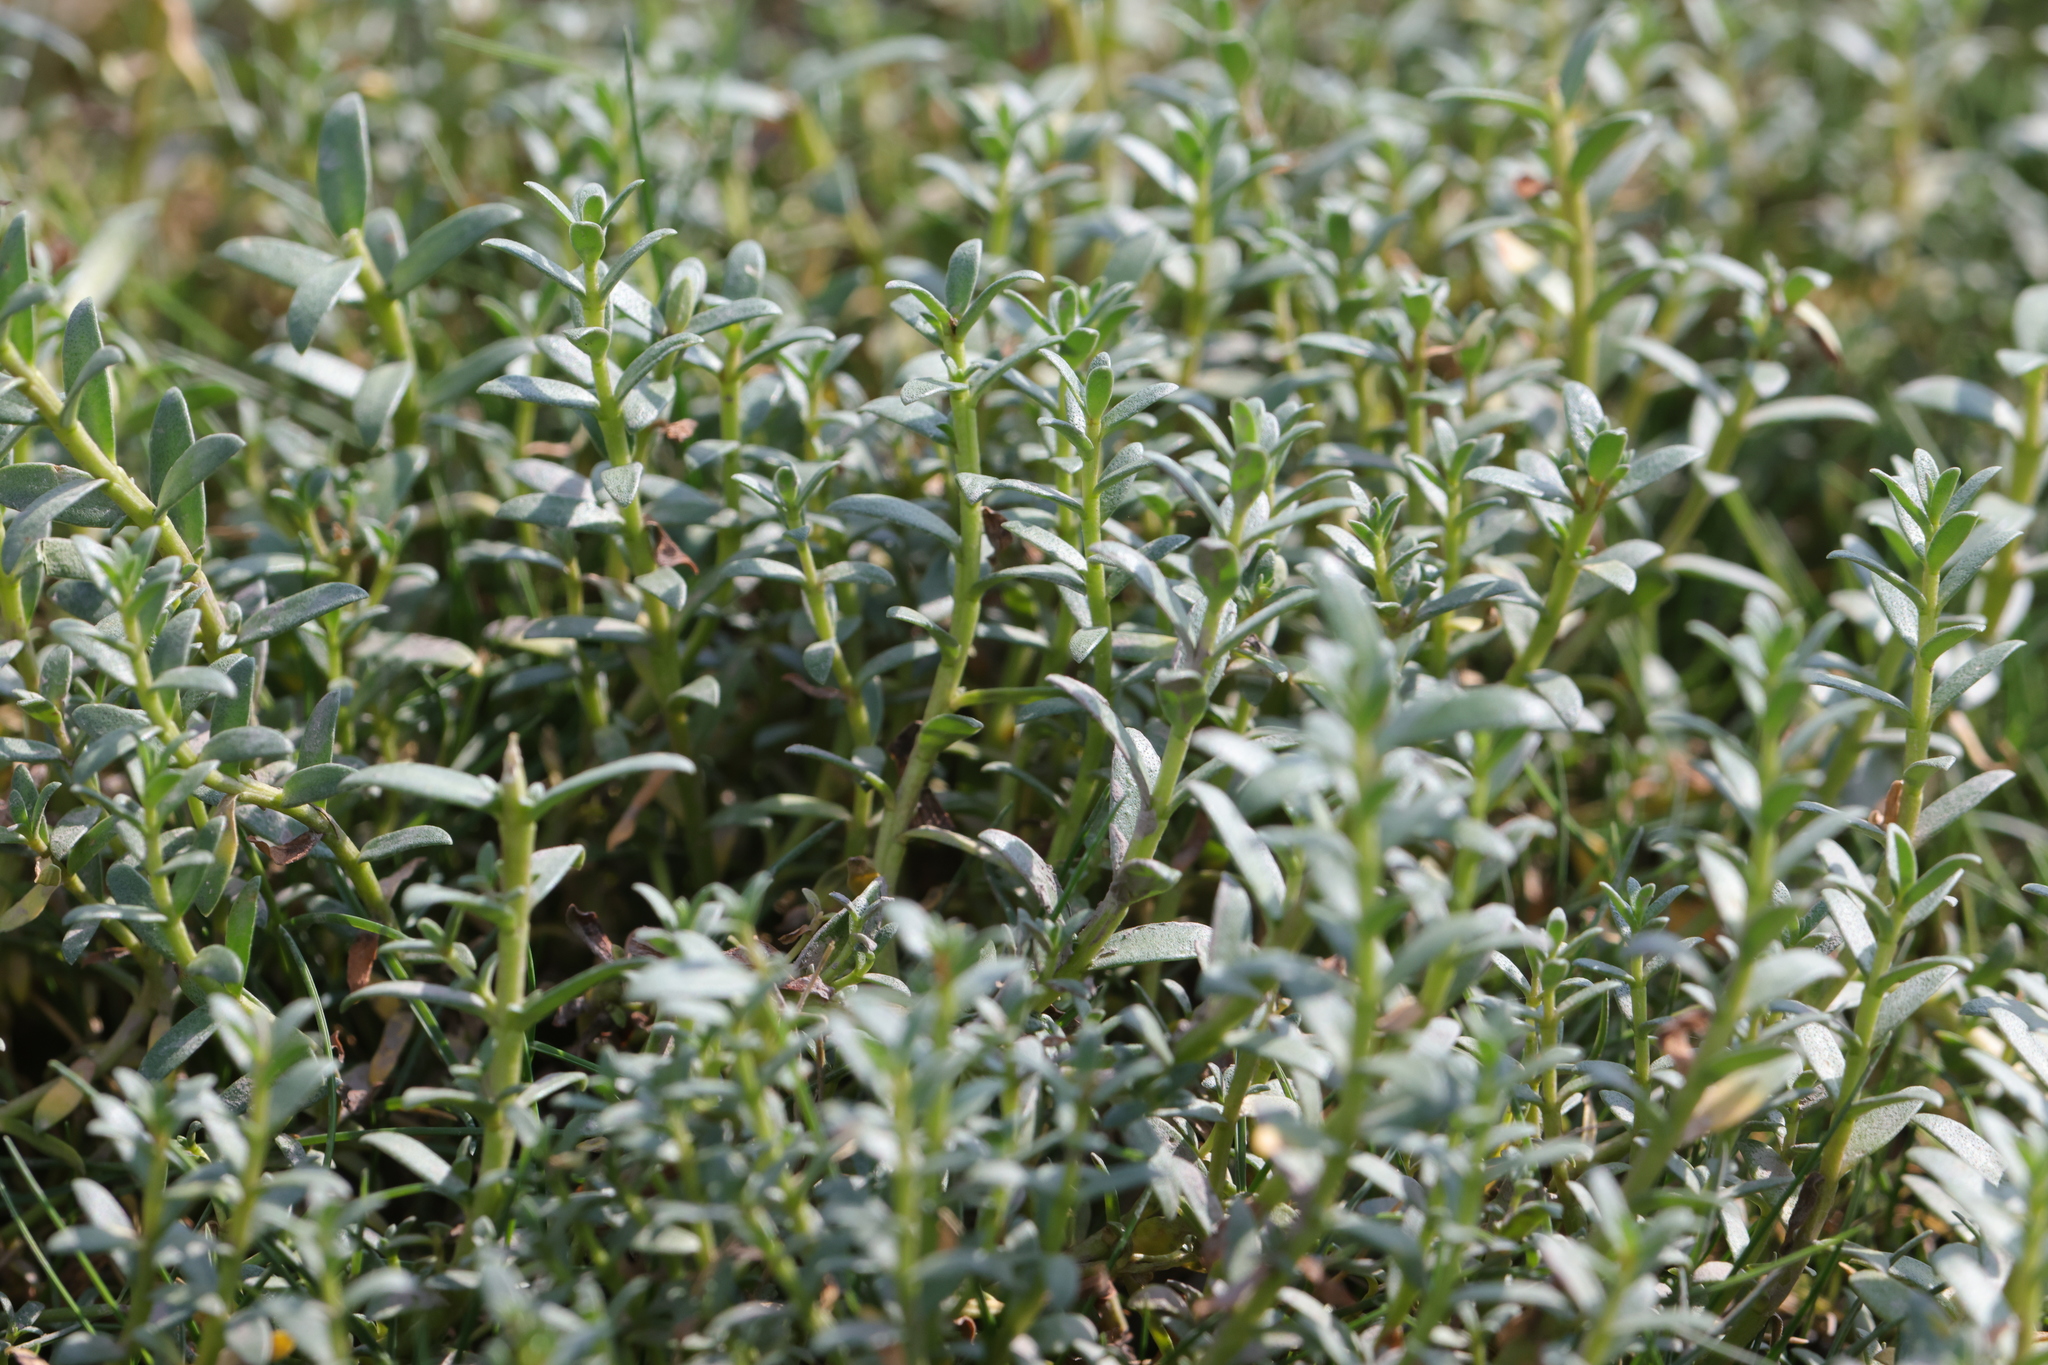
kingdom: Plantae
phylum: Tracheophyta
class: Magnoliopsida
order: Ericales
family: Primulaceae
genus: Lysimachia
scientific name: Lysimachia maritima
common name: Sea milkwort
